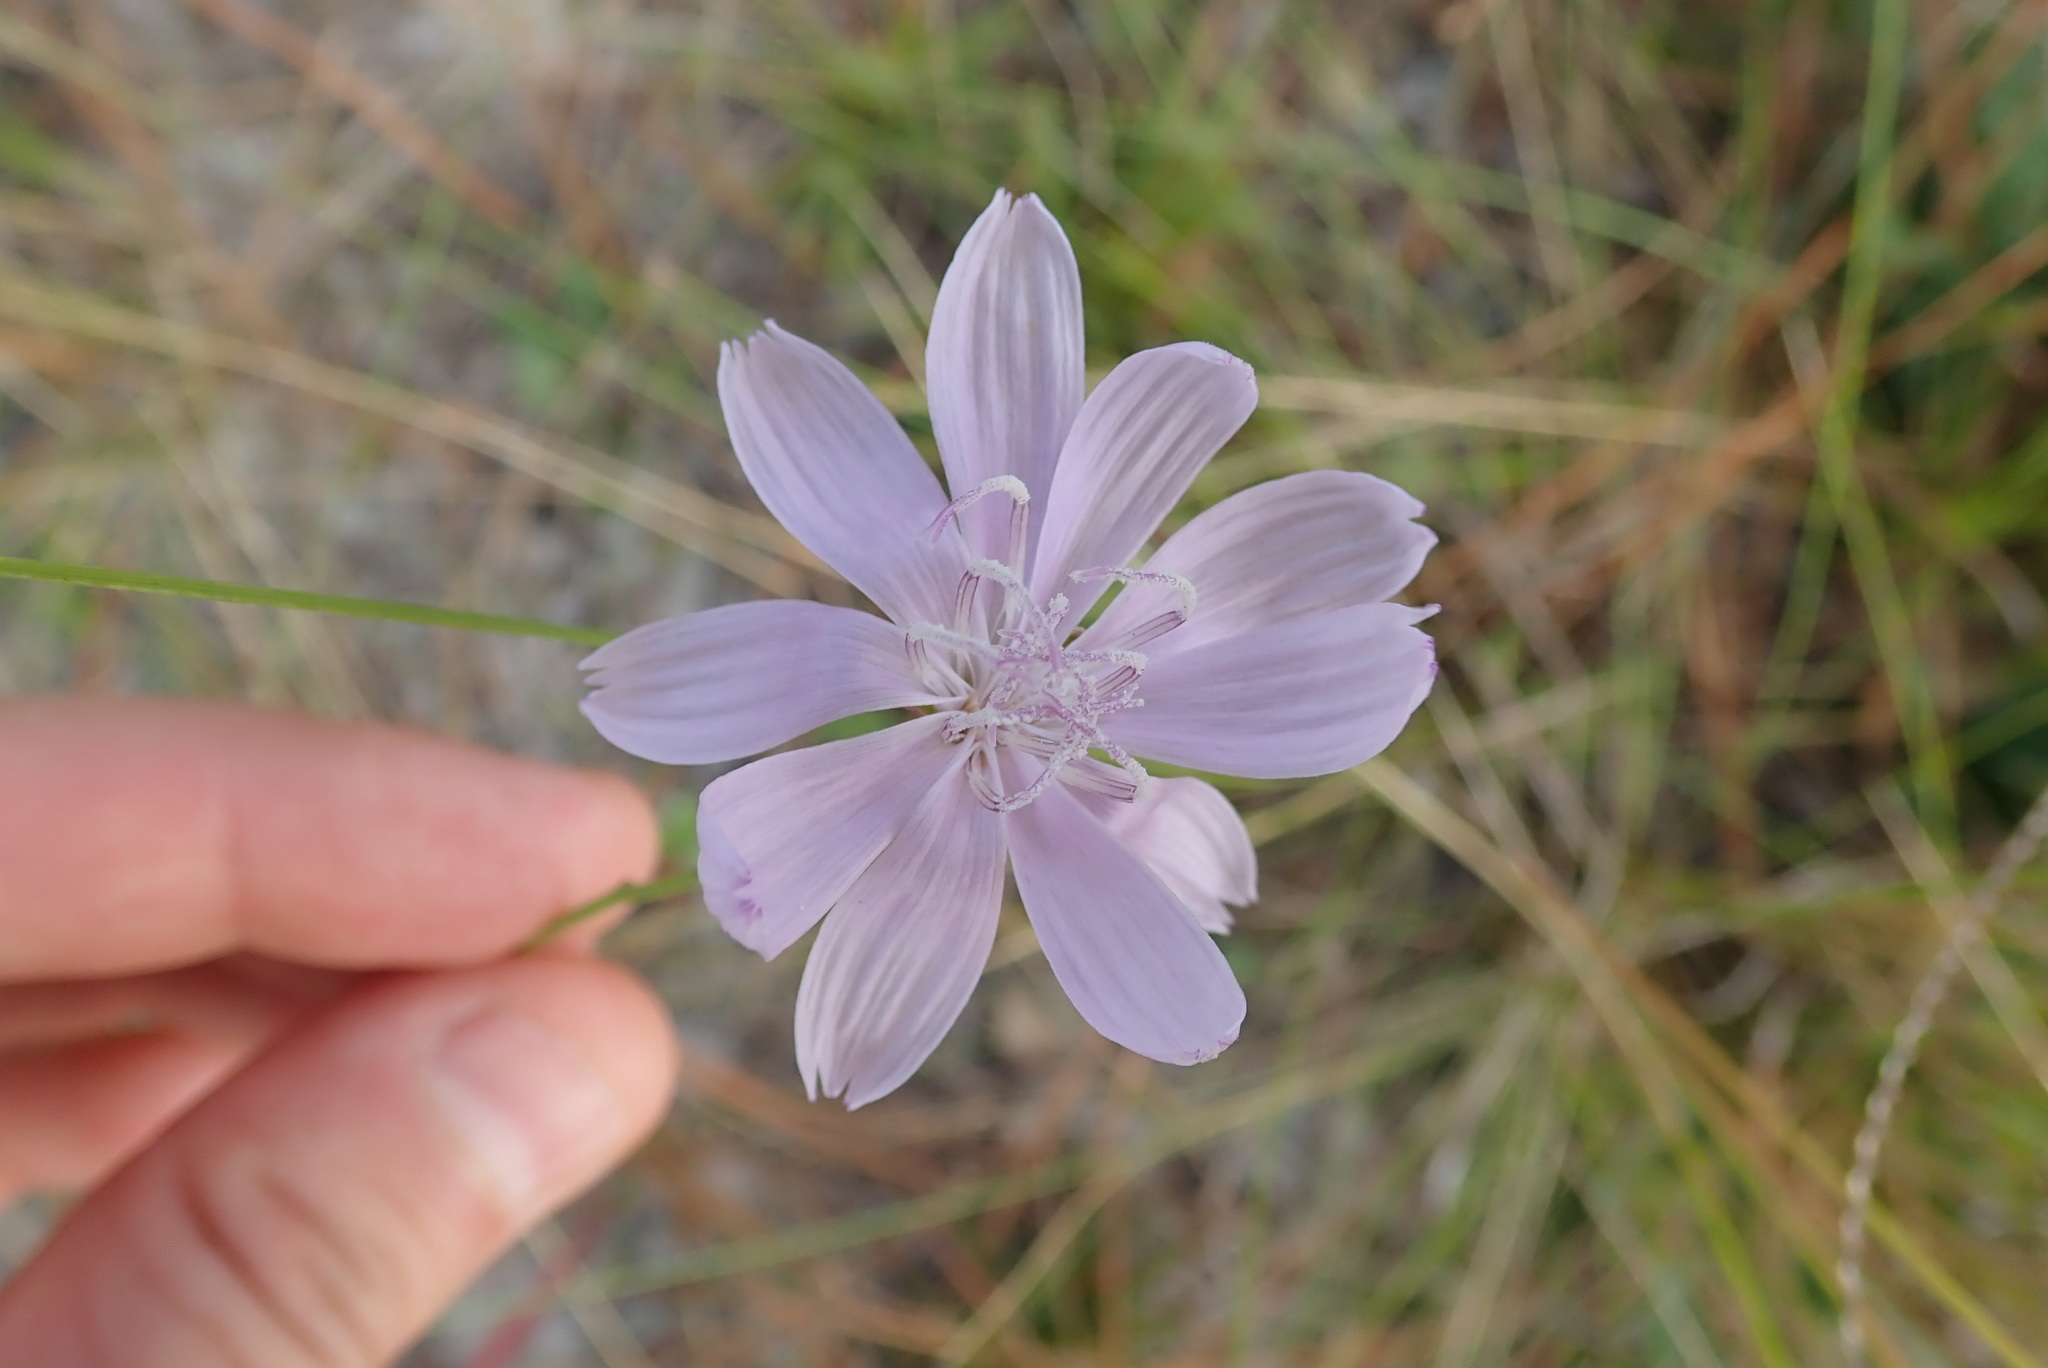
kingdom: Plantae
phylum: Tracheophyta
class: Magnoliopsida
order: Asterales
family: Asteraceae
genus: Lygodesmia
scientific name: Lygodesmia aphylla
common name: Rose-rush
